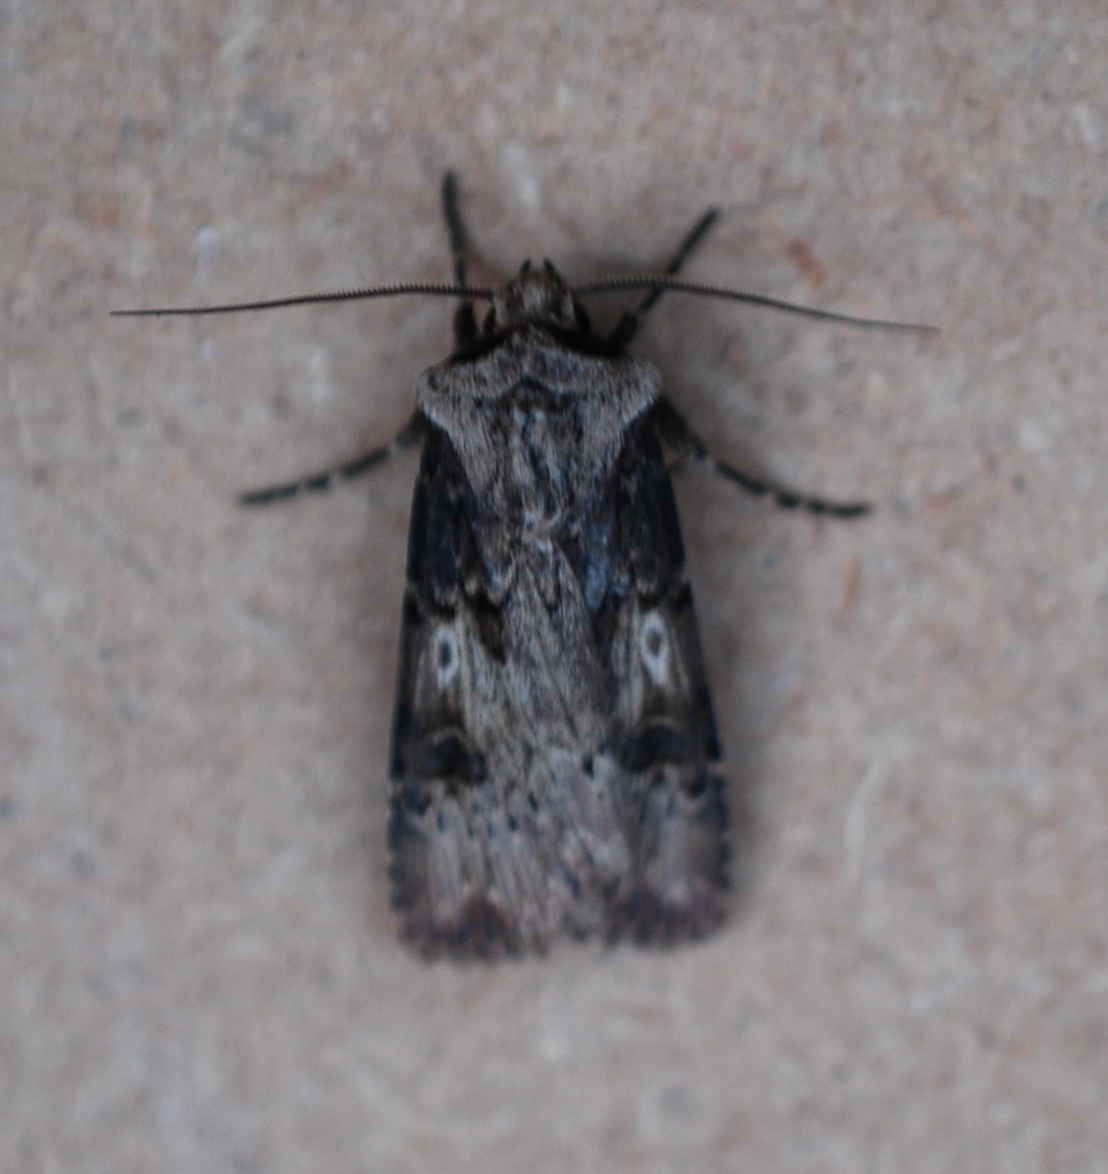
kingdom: Animalia
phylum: Arthropoda
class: Insecta
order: Lepidoptera
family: Noctuidae
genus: Agrotis
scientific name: Agrotis puta
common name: Shuttle-shaped dart
